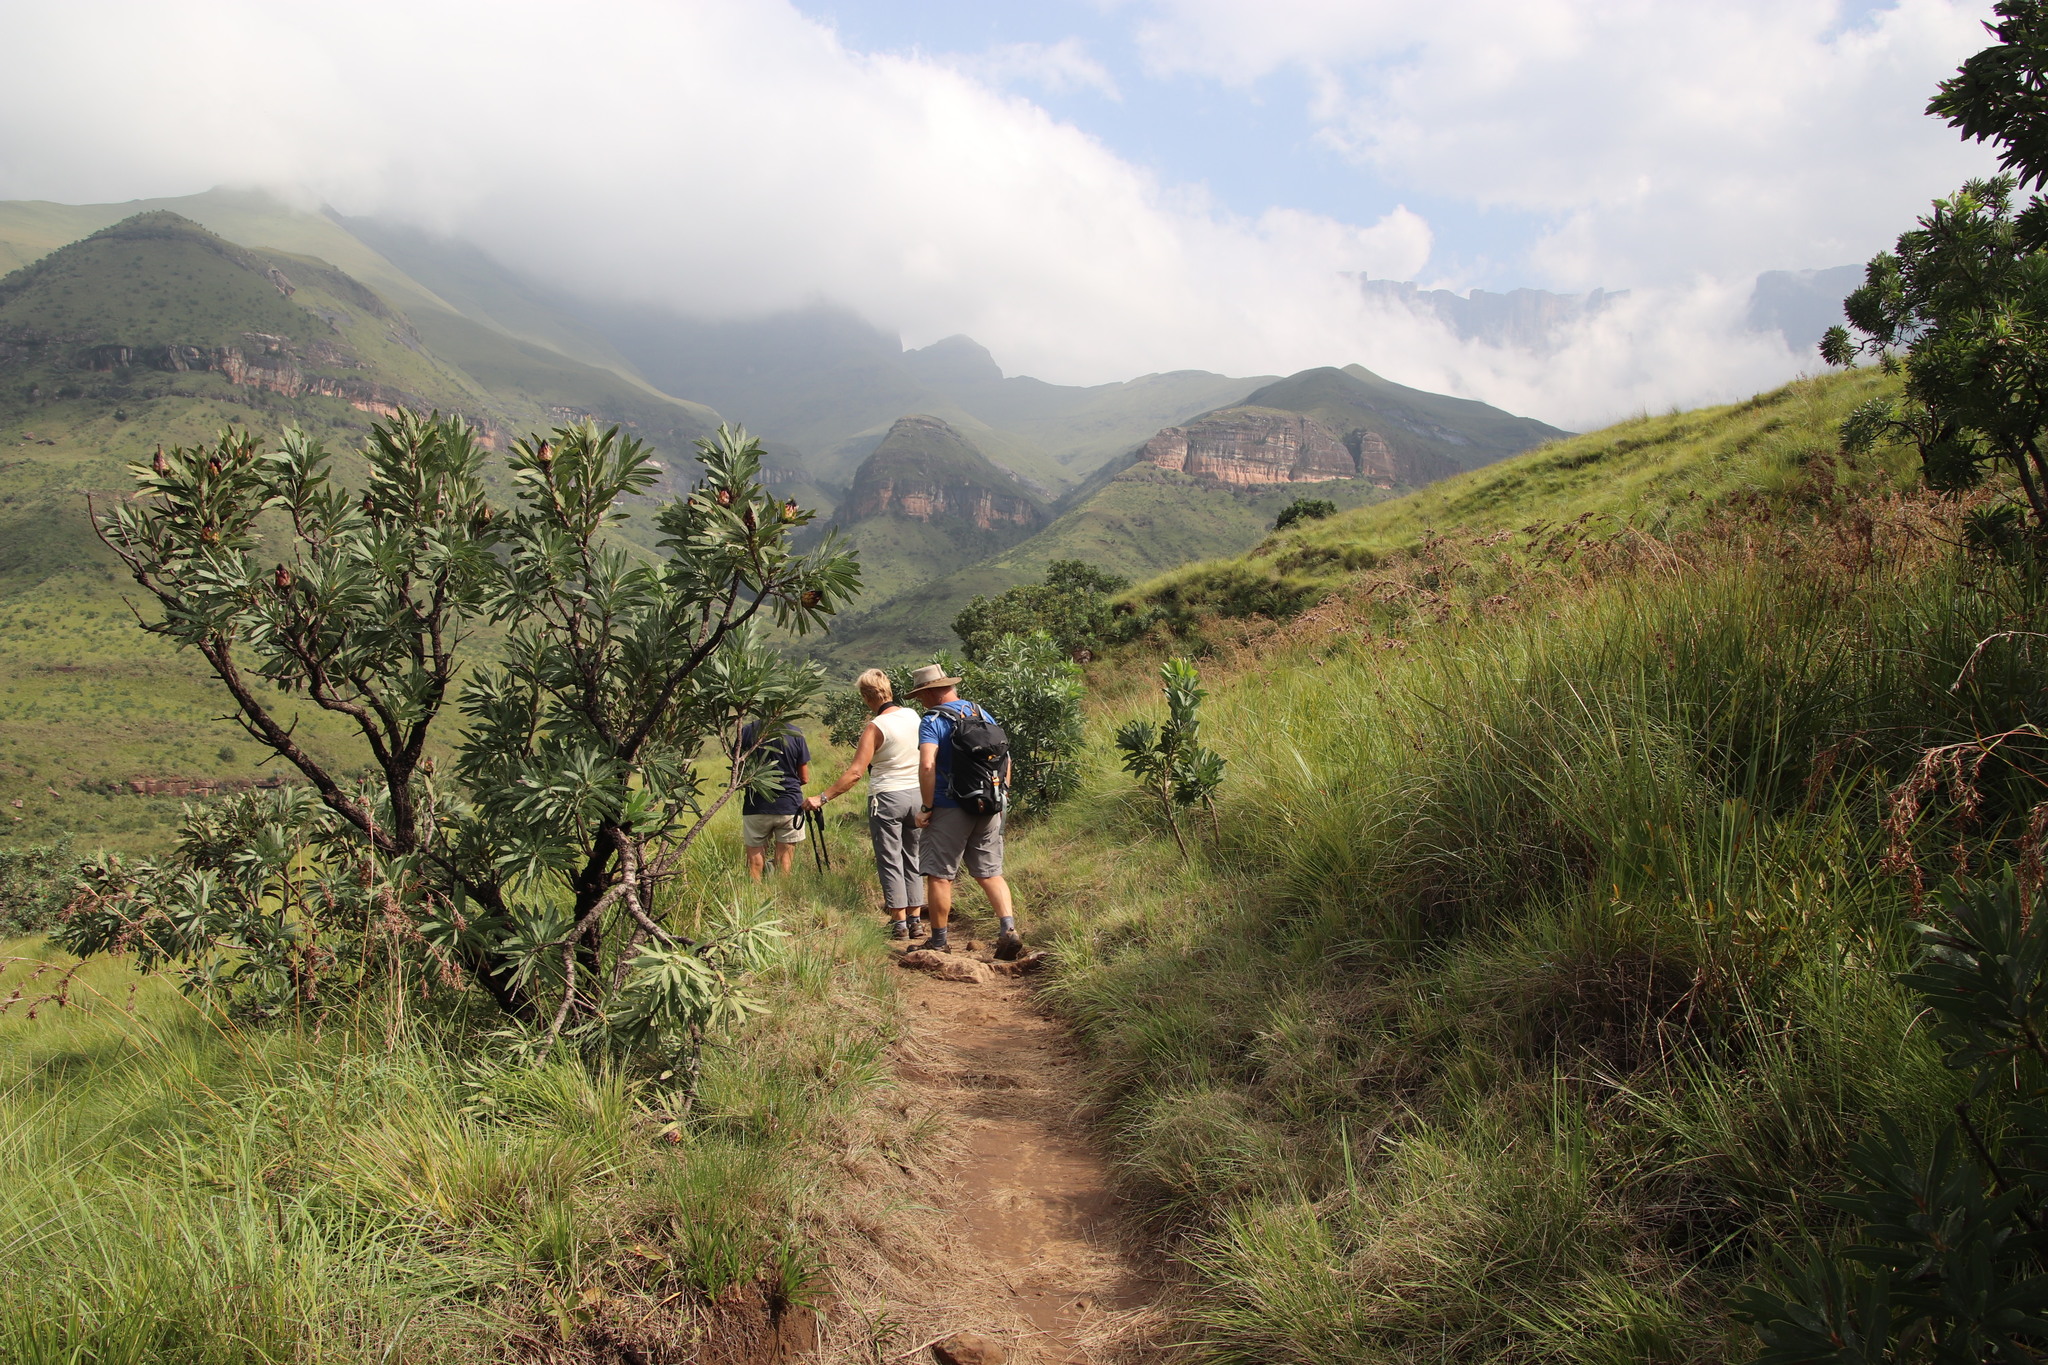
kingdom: Plantae
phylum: Tracheophyta
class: Magnoliopsida
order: Proteales
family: Proteaceae
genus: Protea
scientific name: Protea caffra
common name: Common sugarbush
